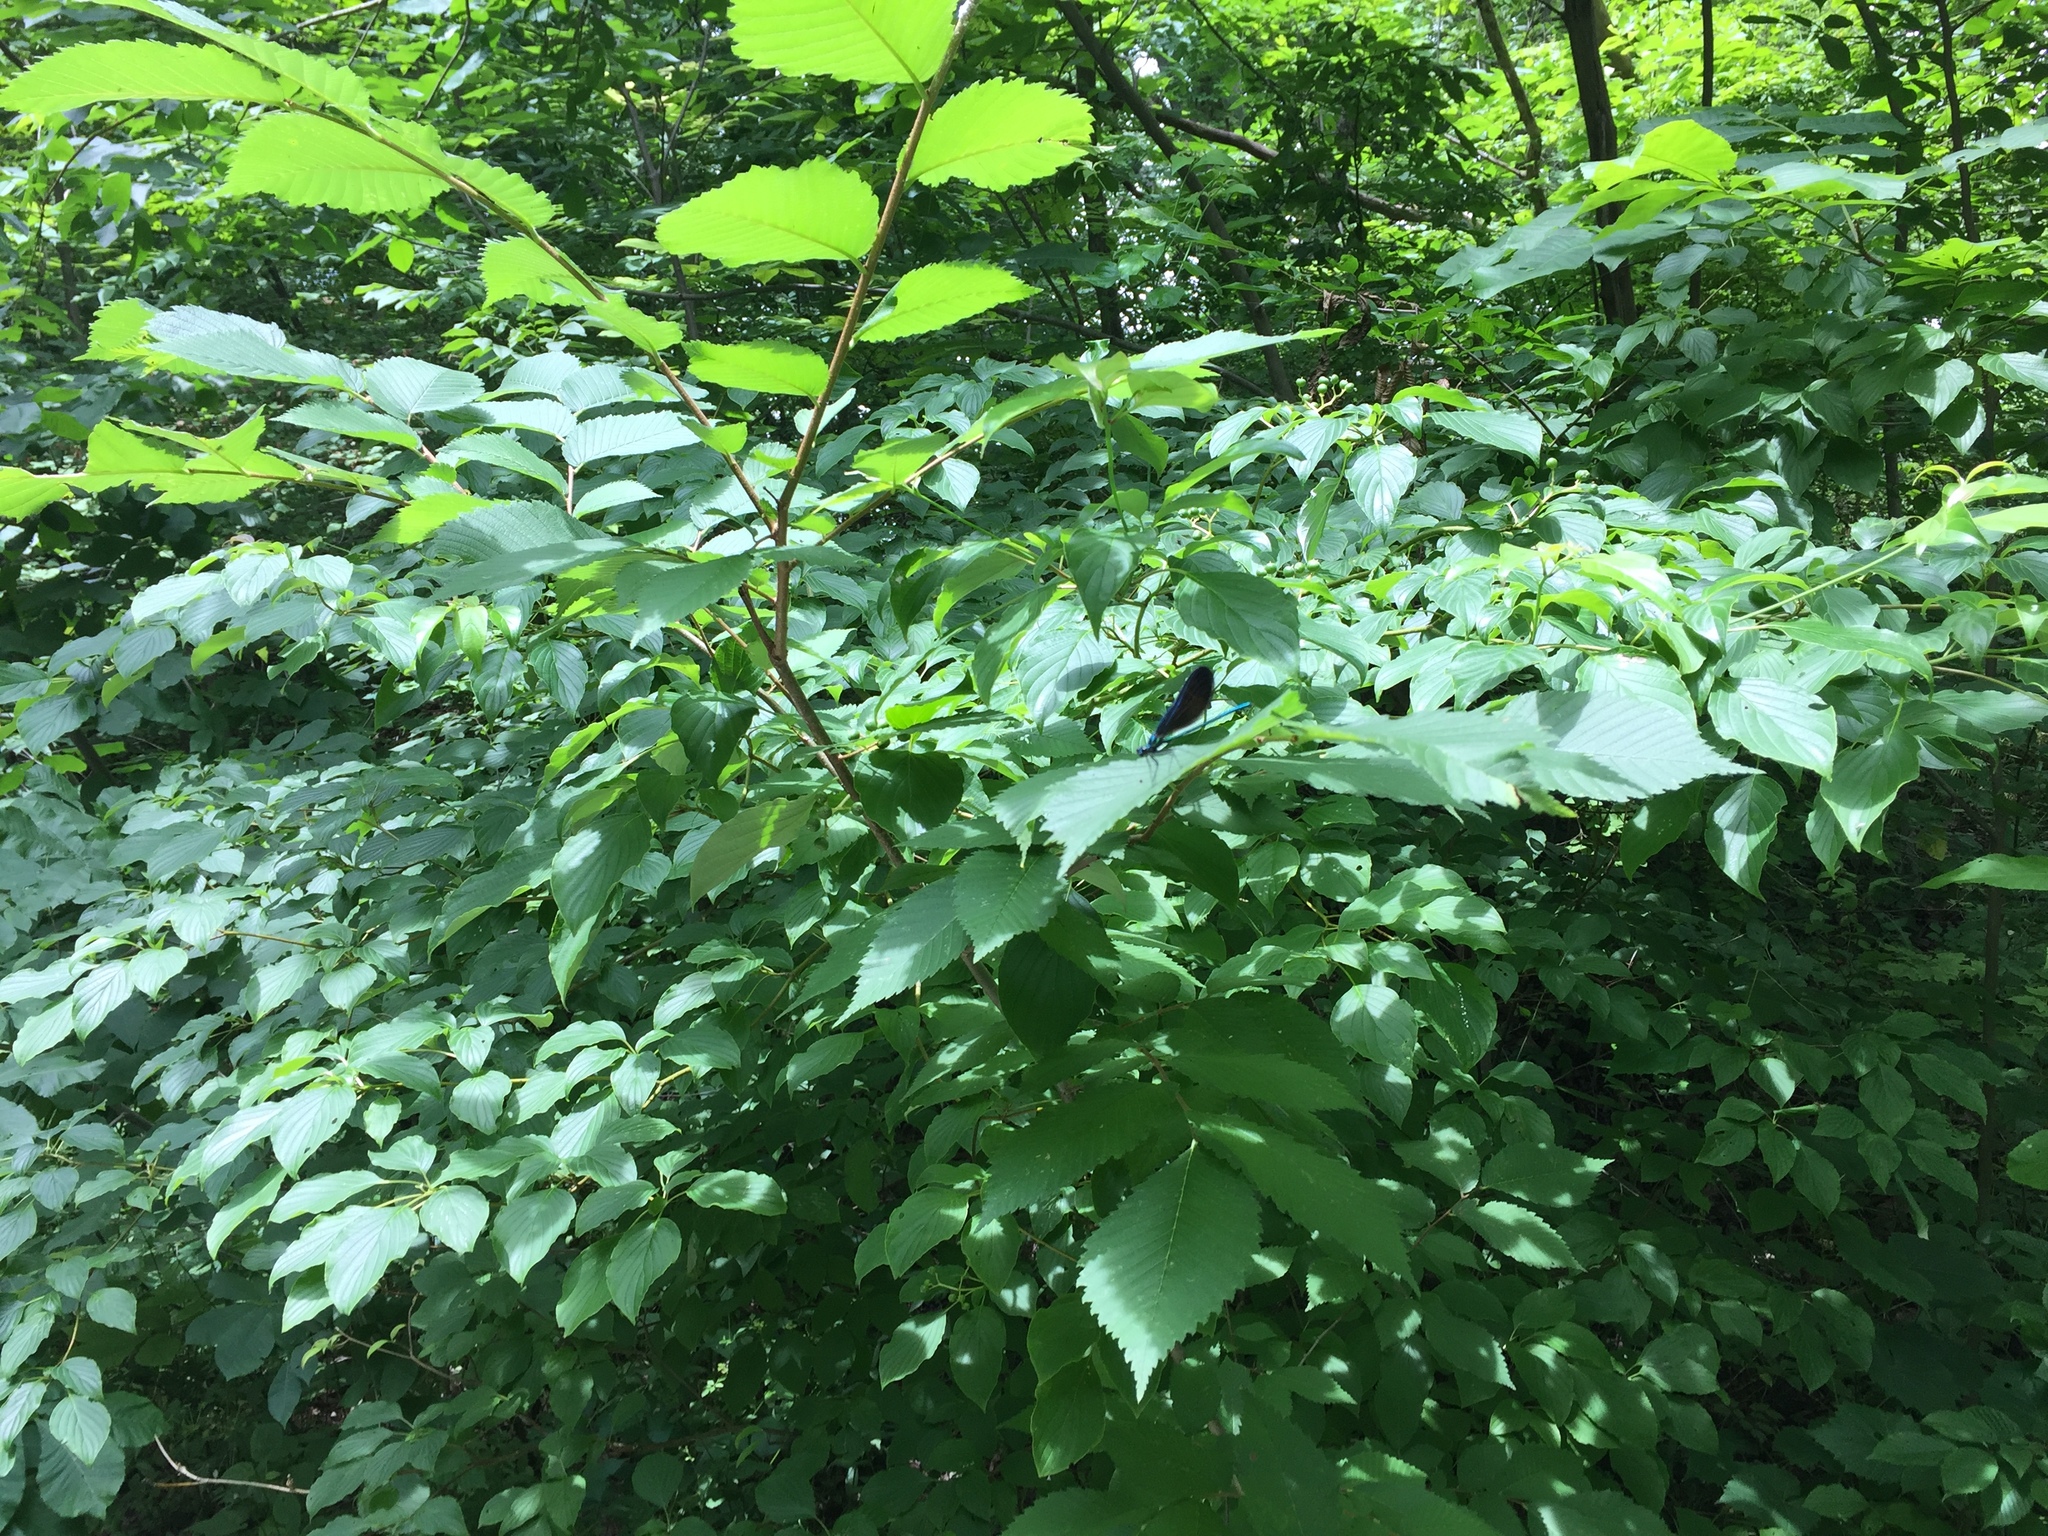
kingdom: Animalia
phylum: Arthropoda
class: Insecta
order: Odonata
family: Calopterygidae
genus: Calopteryx
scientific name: Calopteryx maculata
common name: Ebony jewelwing
